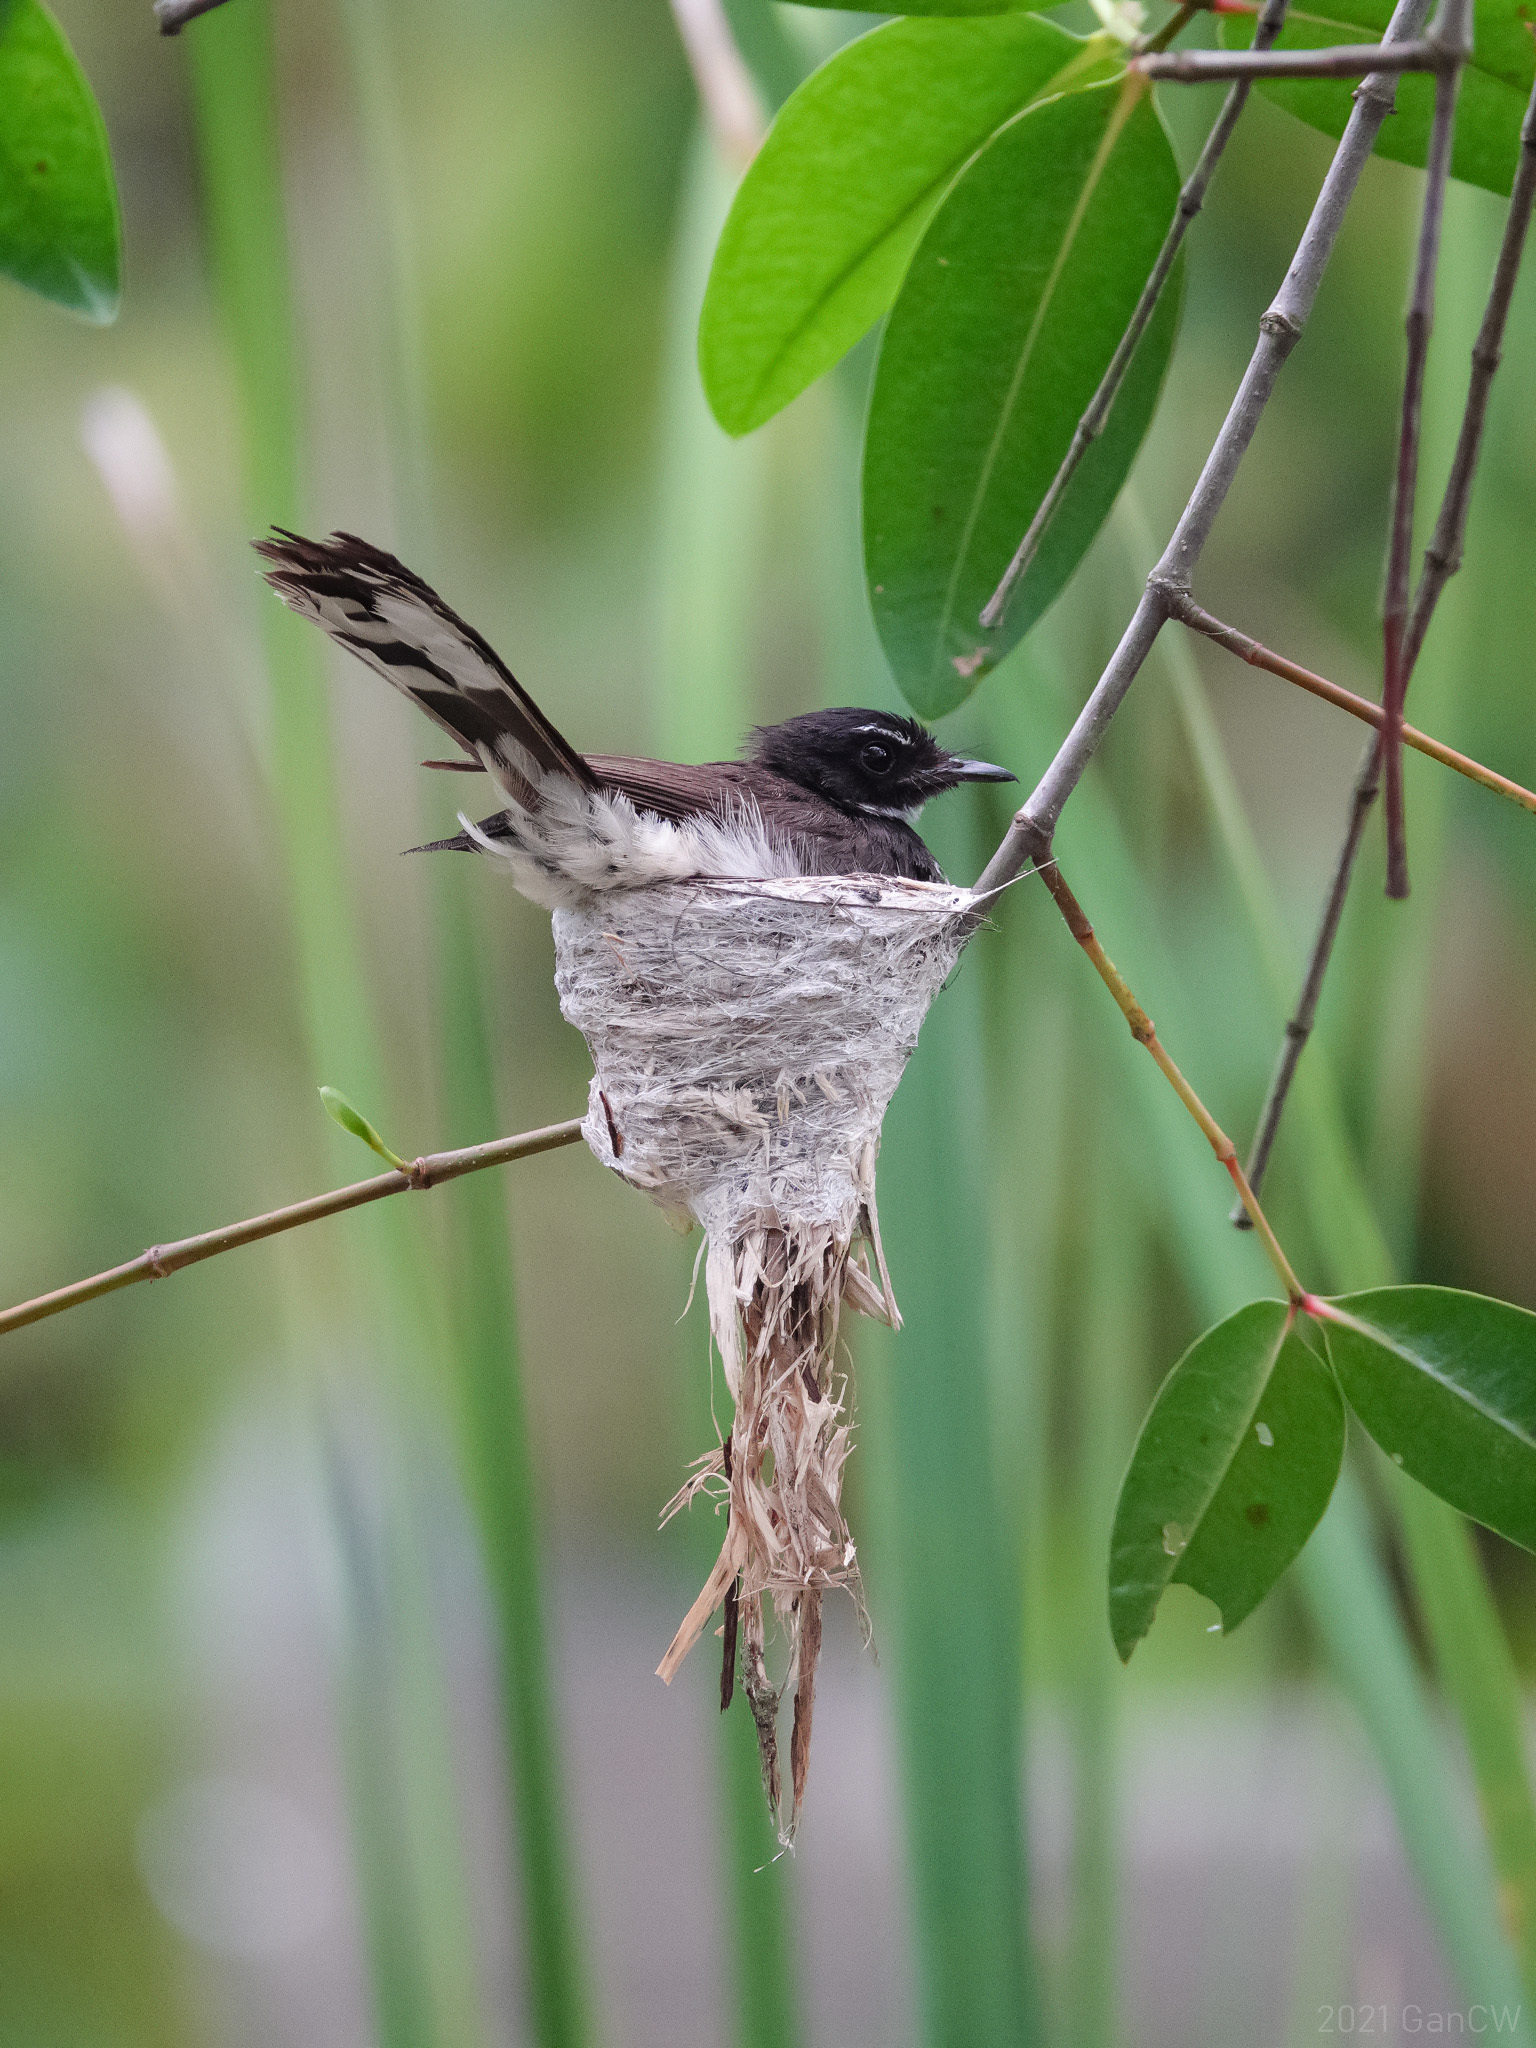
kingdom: Animalia
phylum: Chordata
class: Aves
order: Passeriformes
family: Rhipiduridae
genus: Rhipidura
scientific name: Rhipidura javanica
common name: Pied fantail
